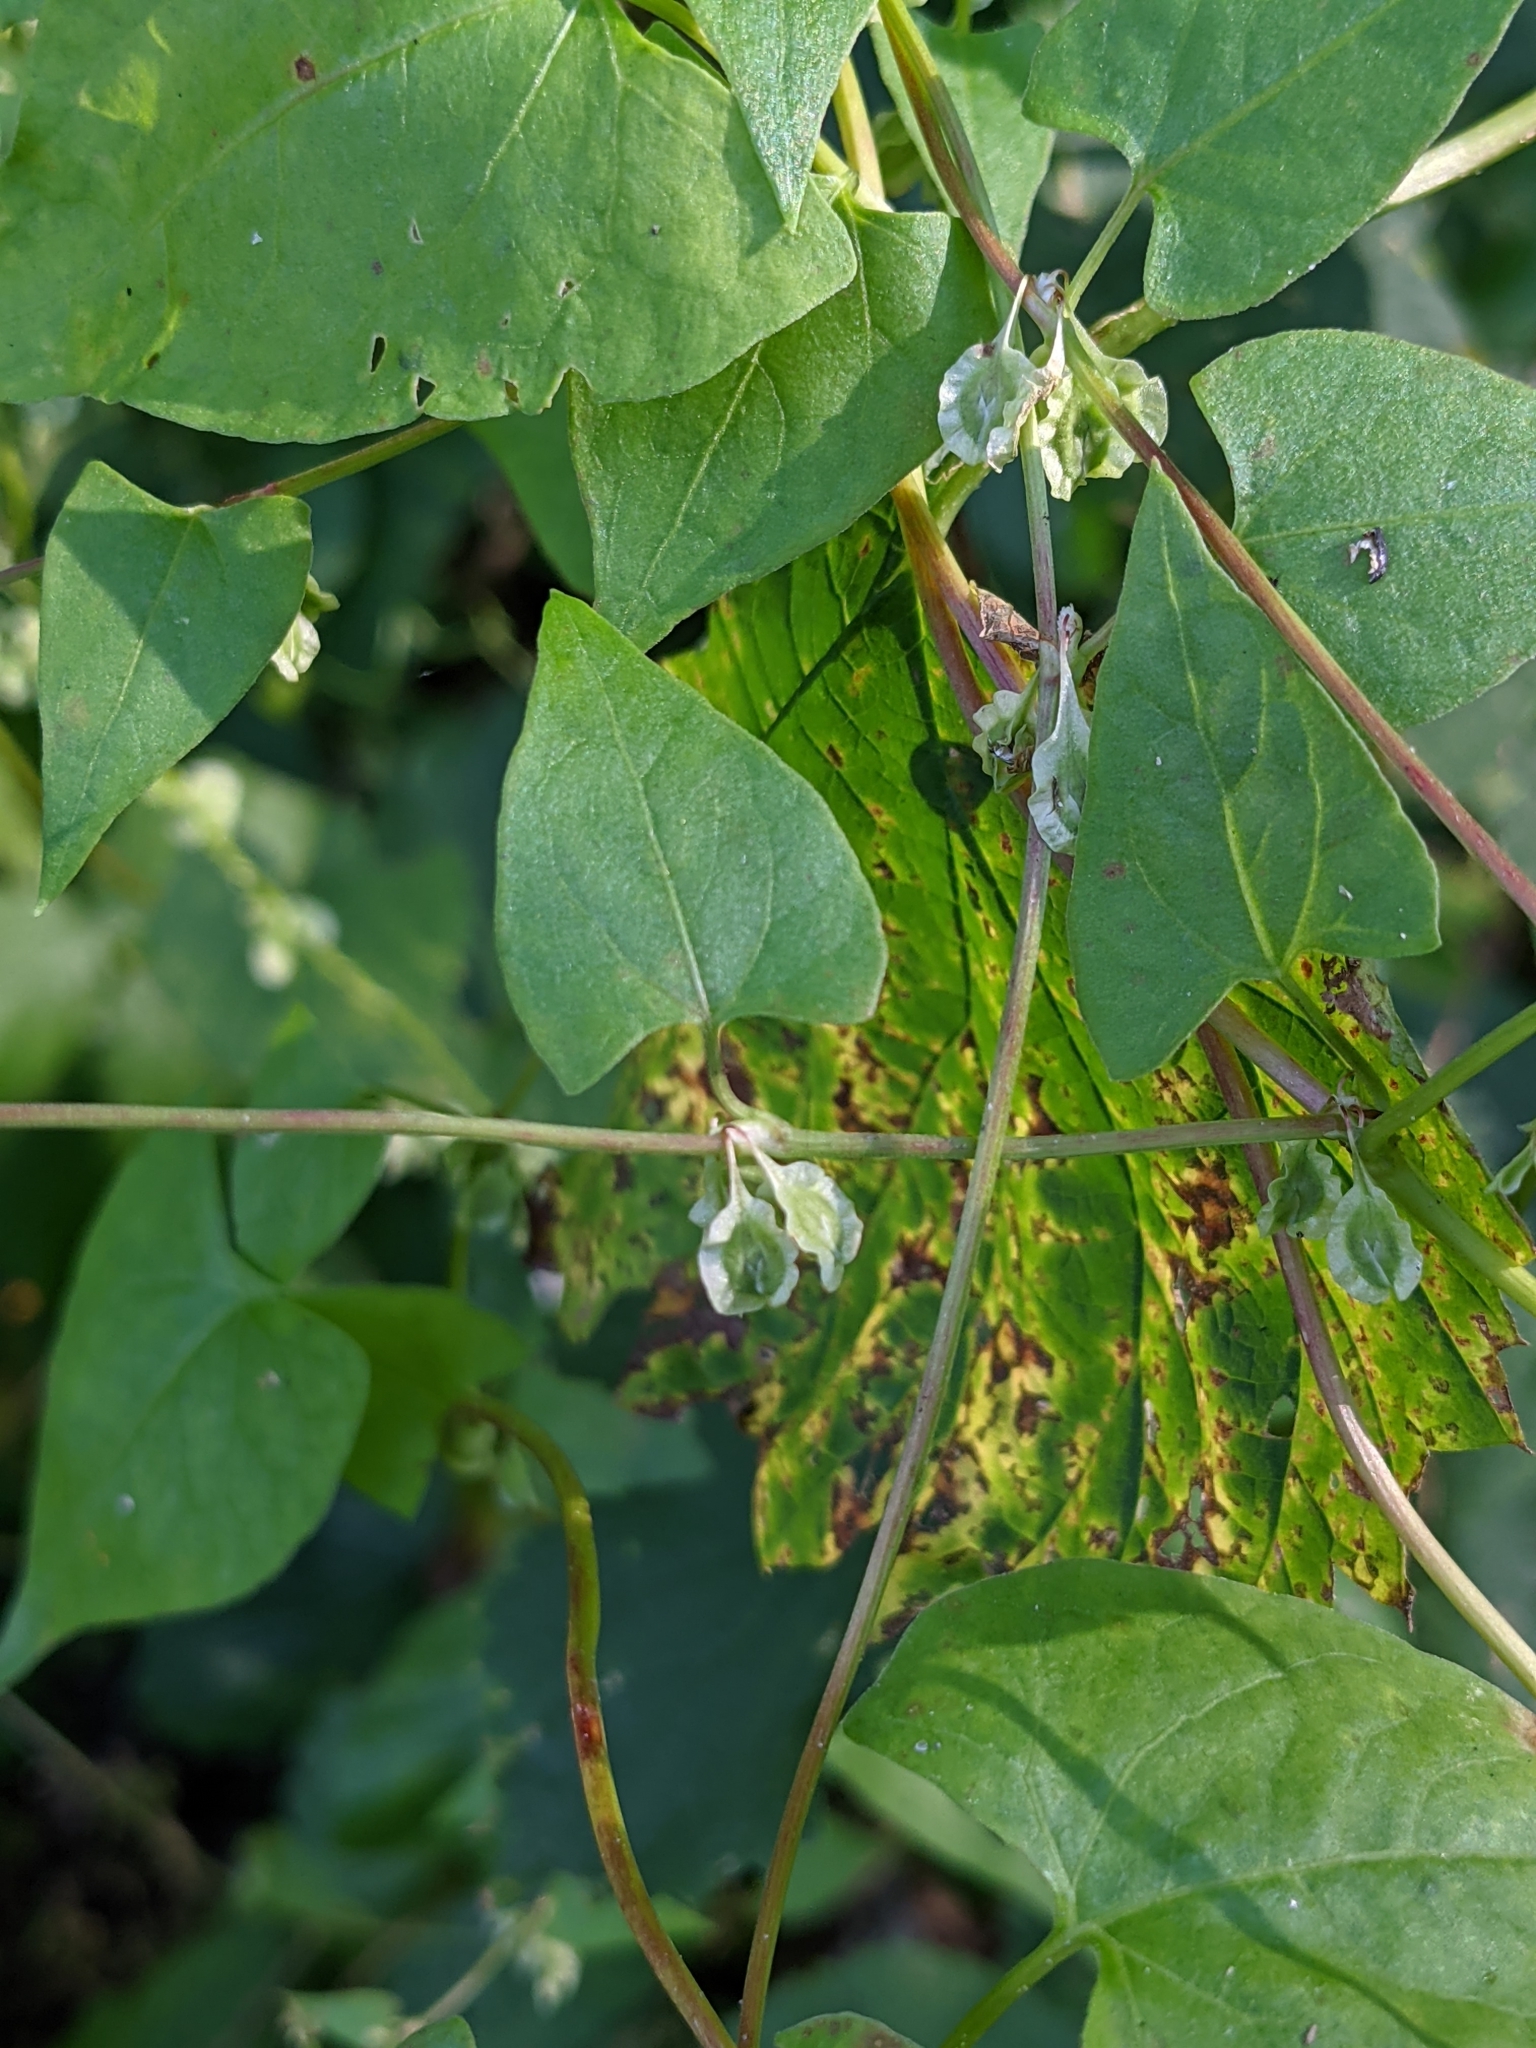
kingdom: Plantae
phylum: Tracheophyta
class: Magnoliopsida
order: Caryophyllales
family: Polygonaceae
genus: Fallopia
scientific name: Fallopia dumetorum
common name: Copse-bindweed
